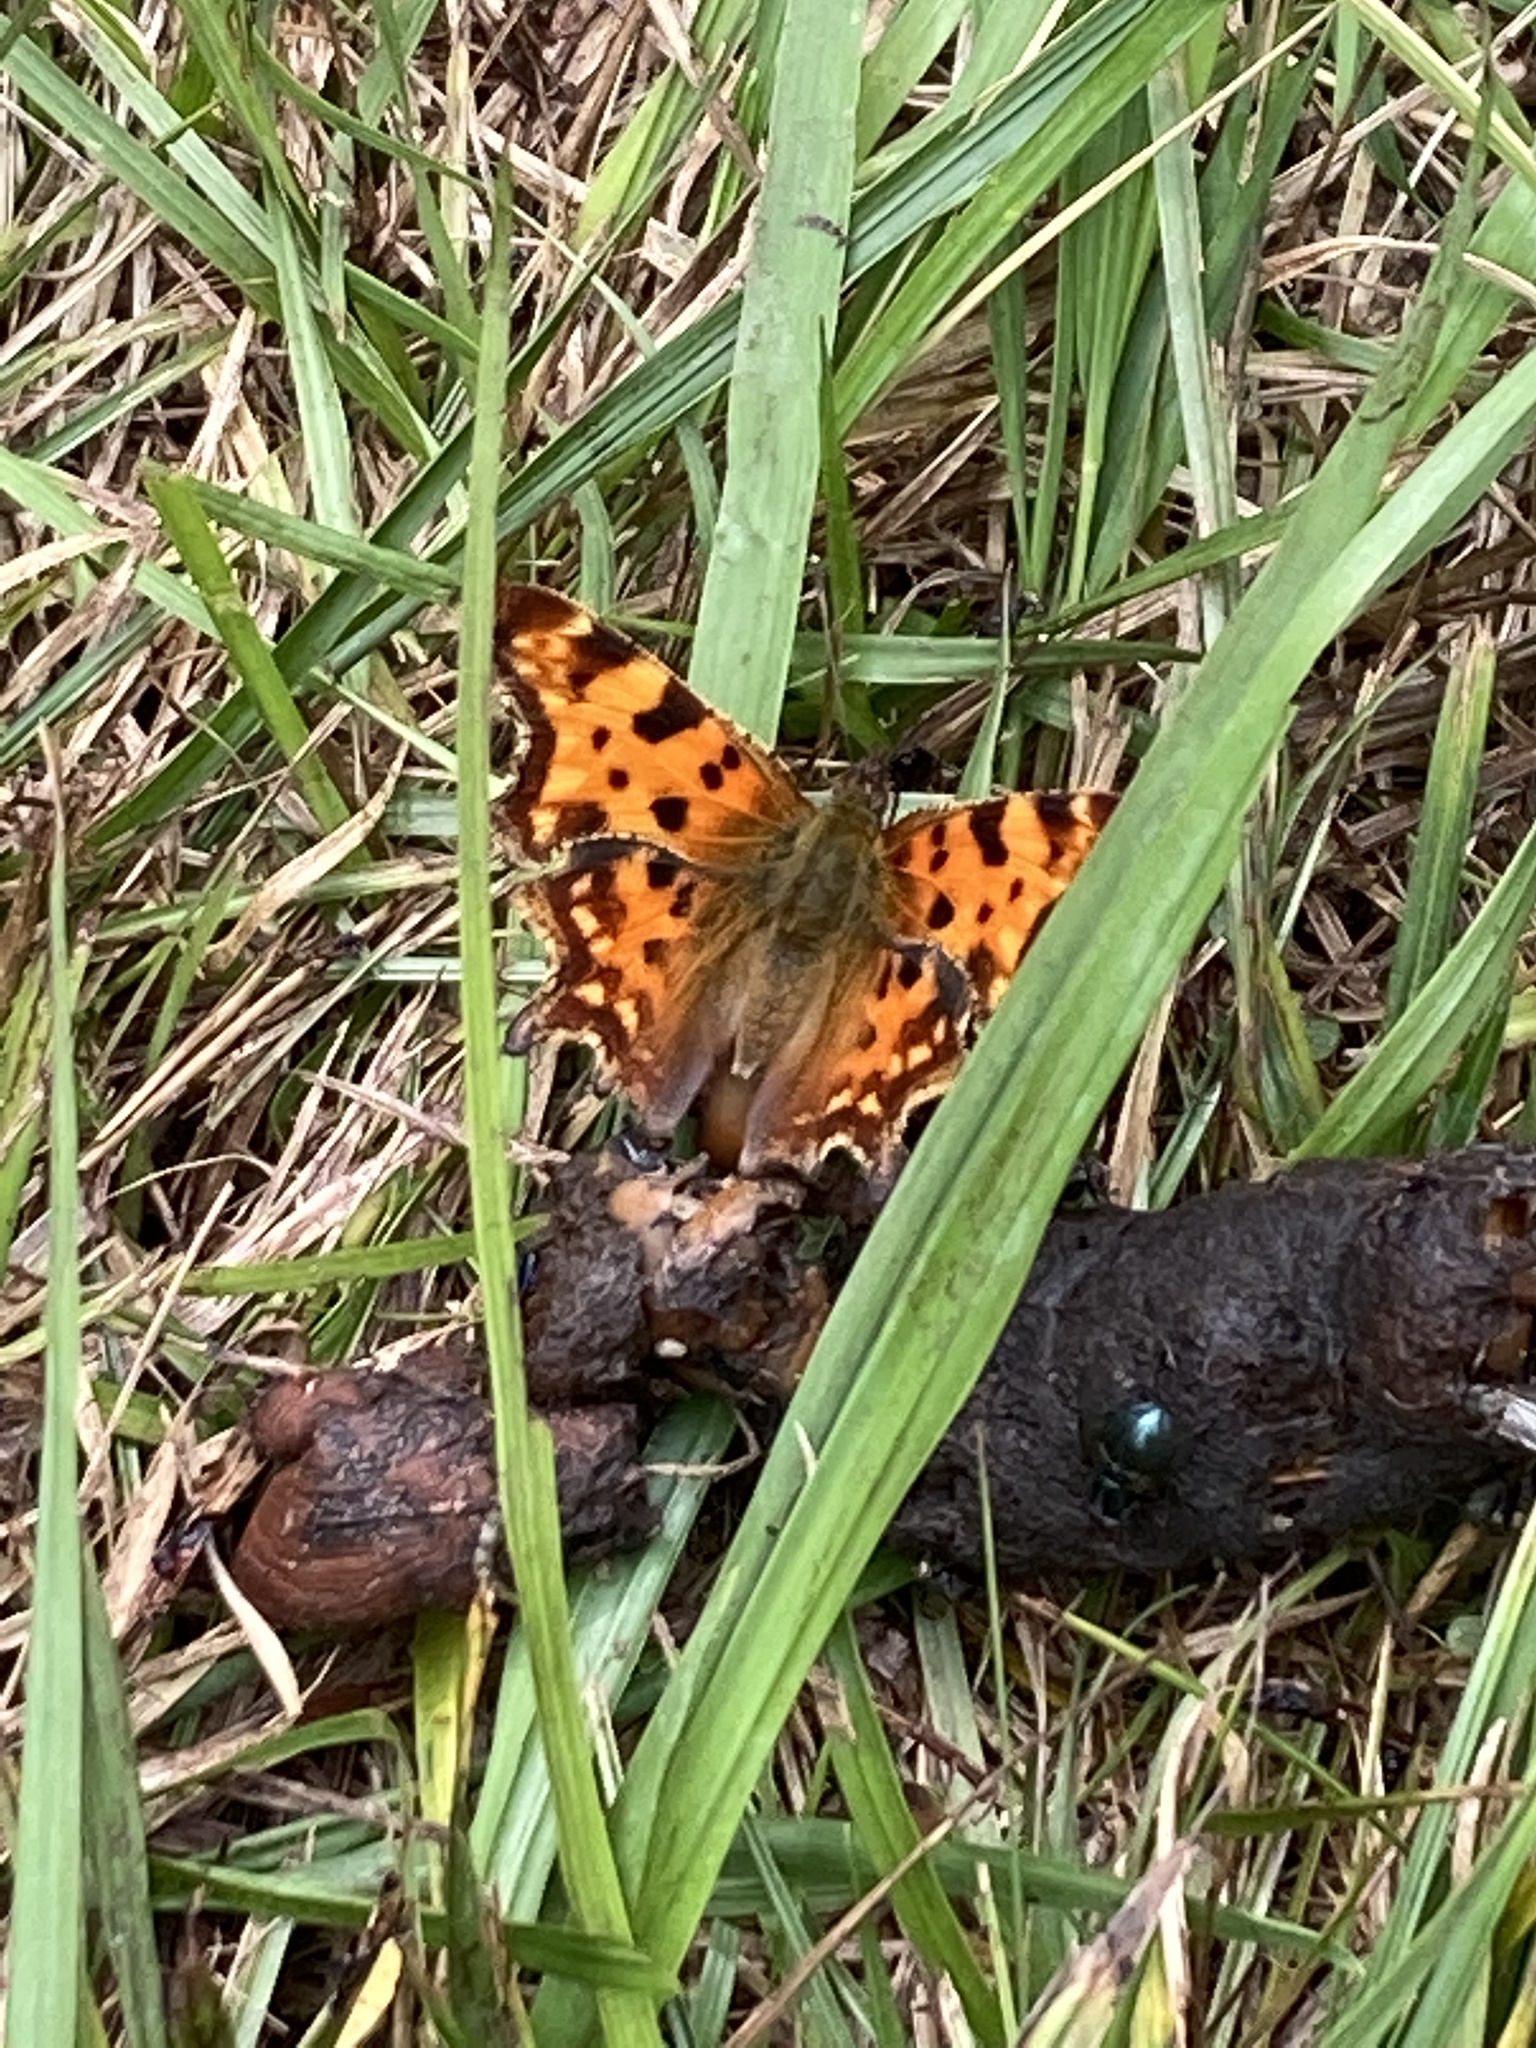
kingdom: Animalia
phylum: Arthropoda
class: Insecta
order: Lepidoptera
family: Nymphalidae
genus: Polygonia
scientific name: Polygonia c-album
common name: Comma
